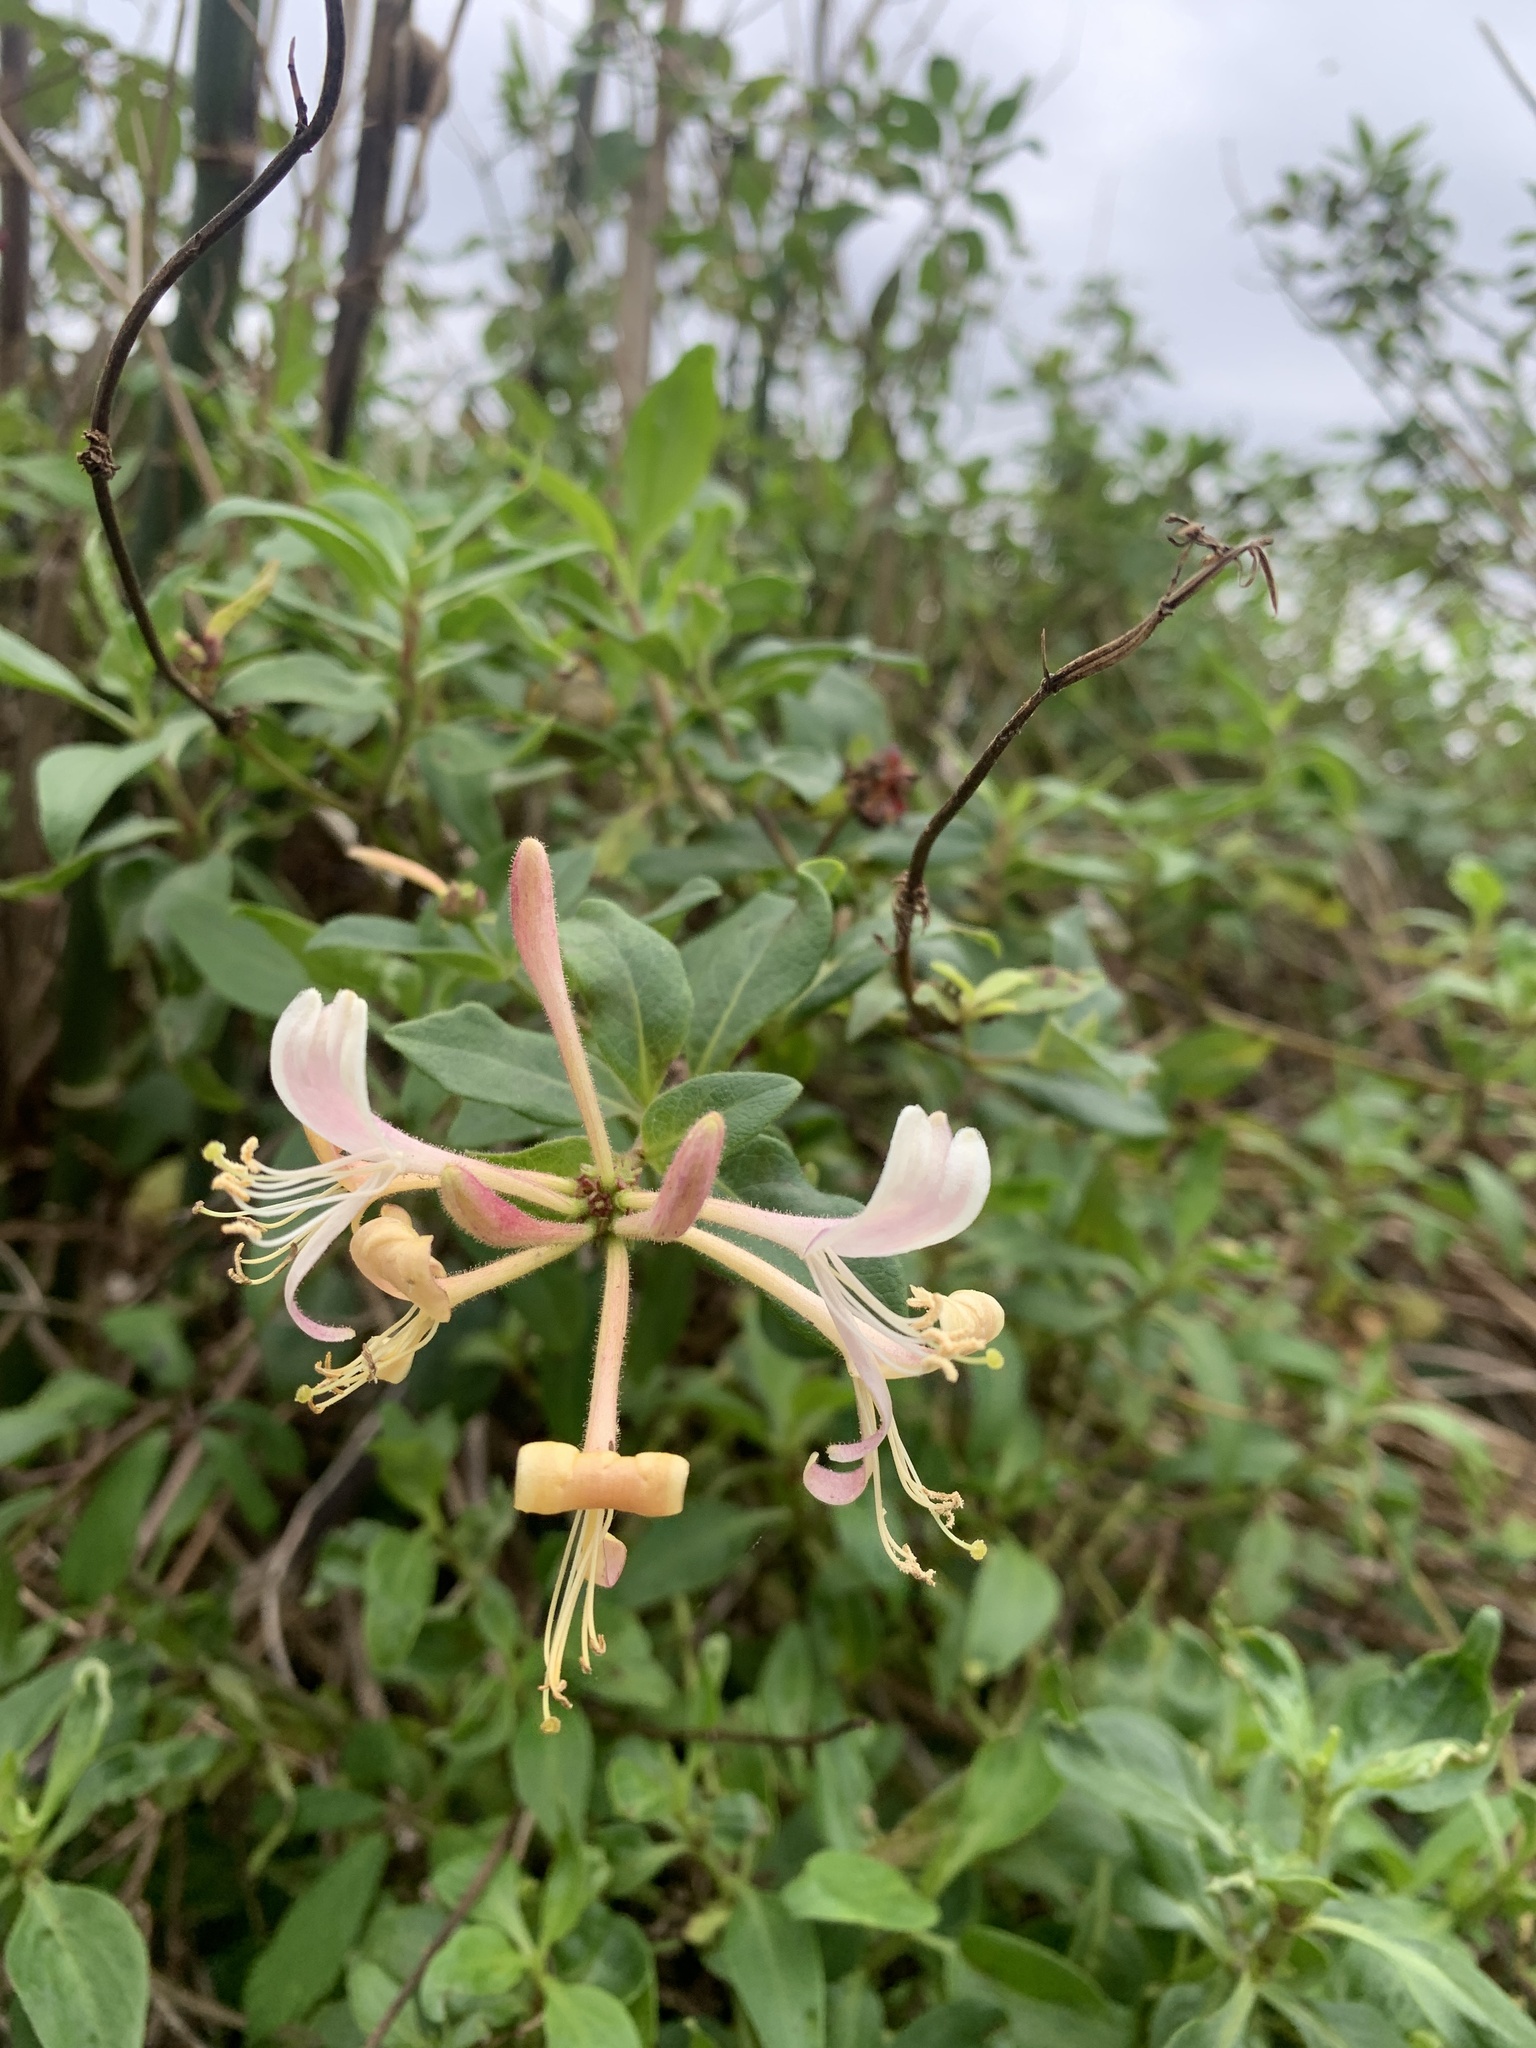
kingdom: Plantae
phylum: Tracheophyta
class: Magnoliopsida
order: Dipsacales
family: Caprifoliaceae
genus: Lonicera
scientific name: Lonicera periclymenum
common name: European honeysuckle
